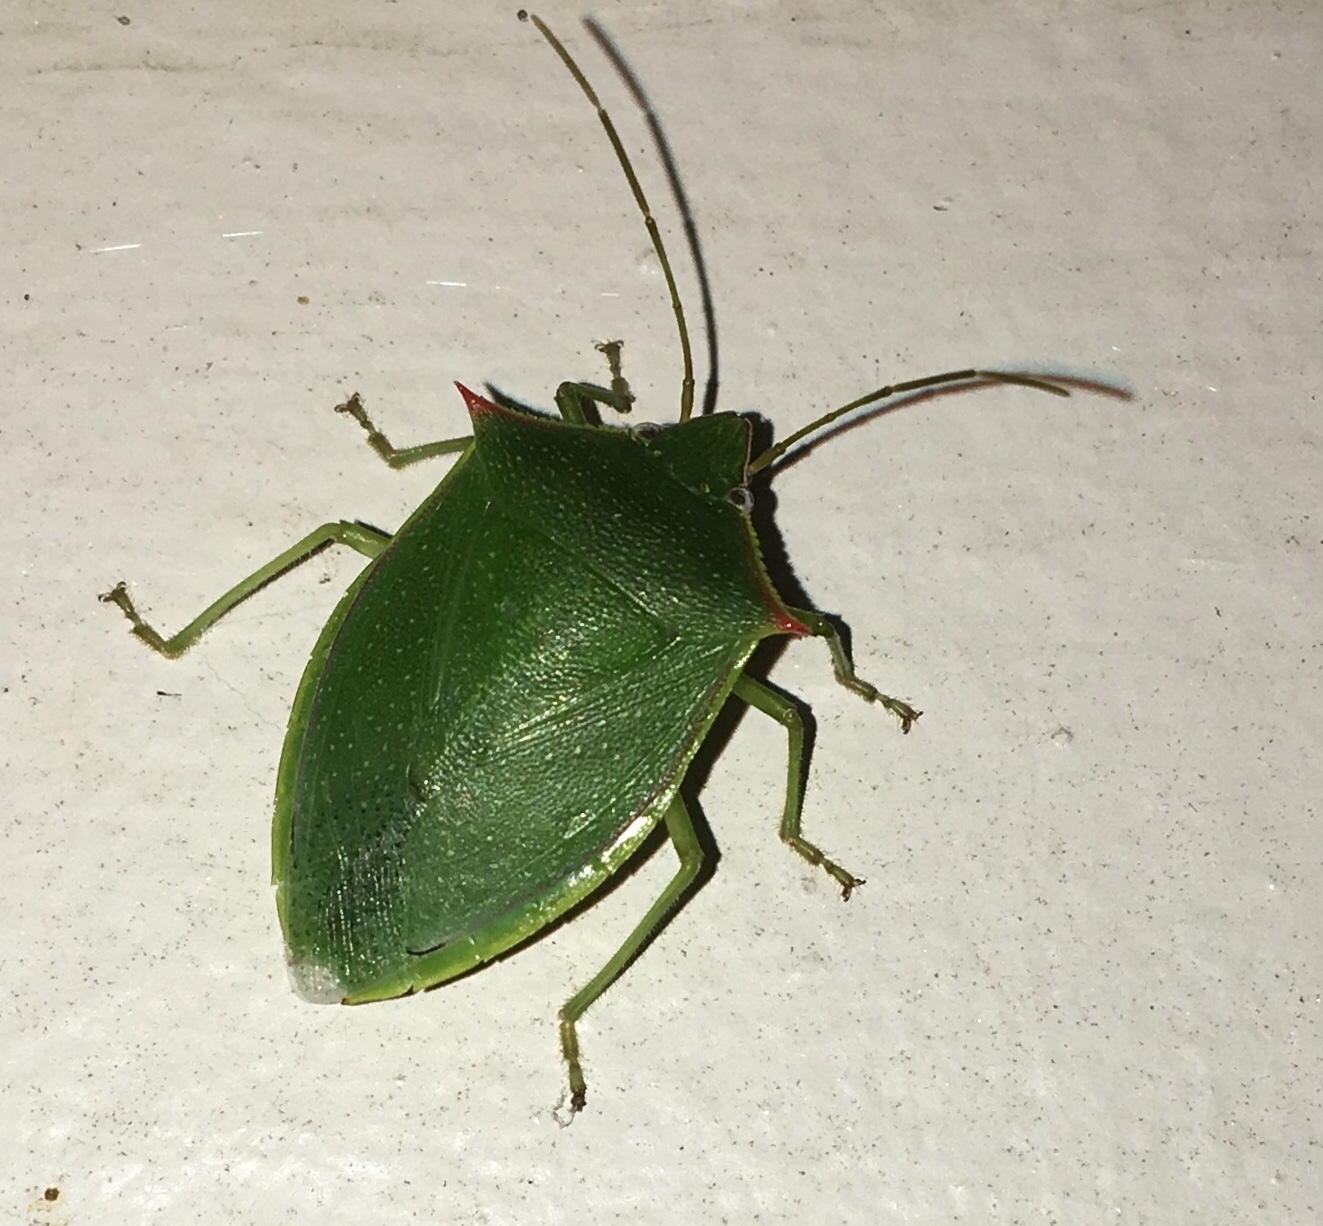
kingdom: Animalia
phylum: Arthropoda
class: Insecta
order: Hemiptera
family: Pentatomidae
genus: Loxa
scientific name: Loxa flavicollis
